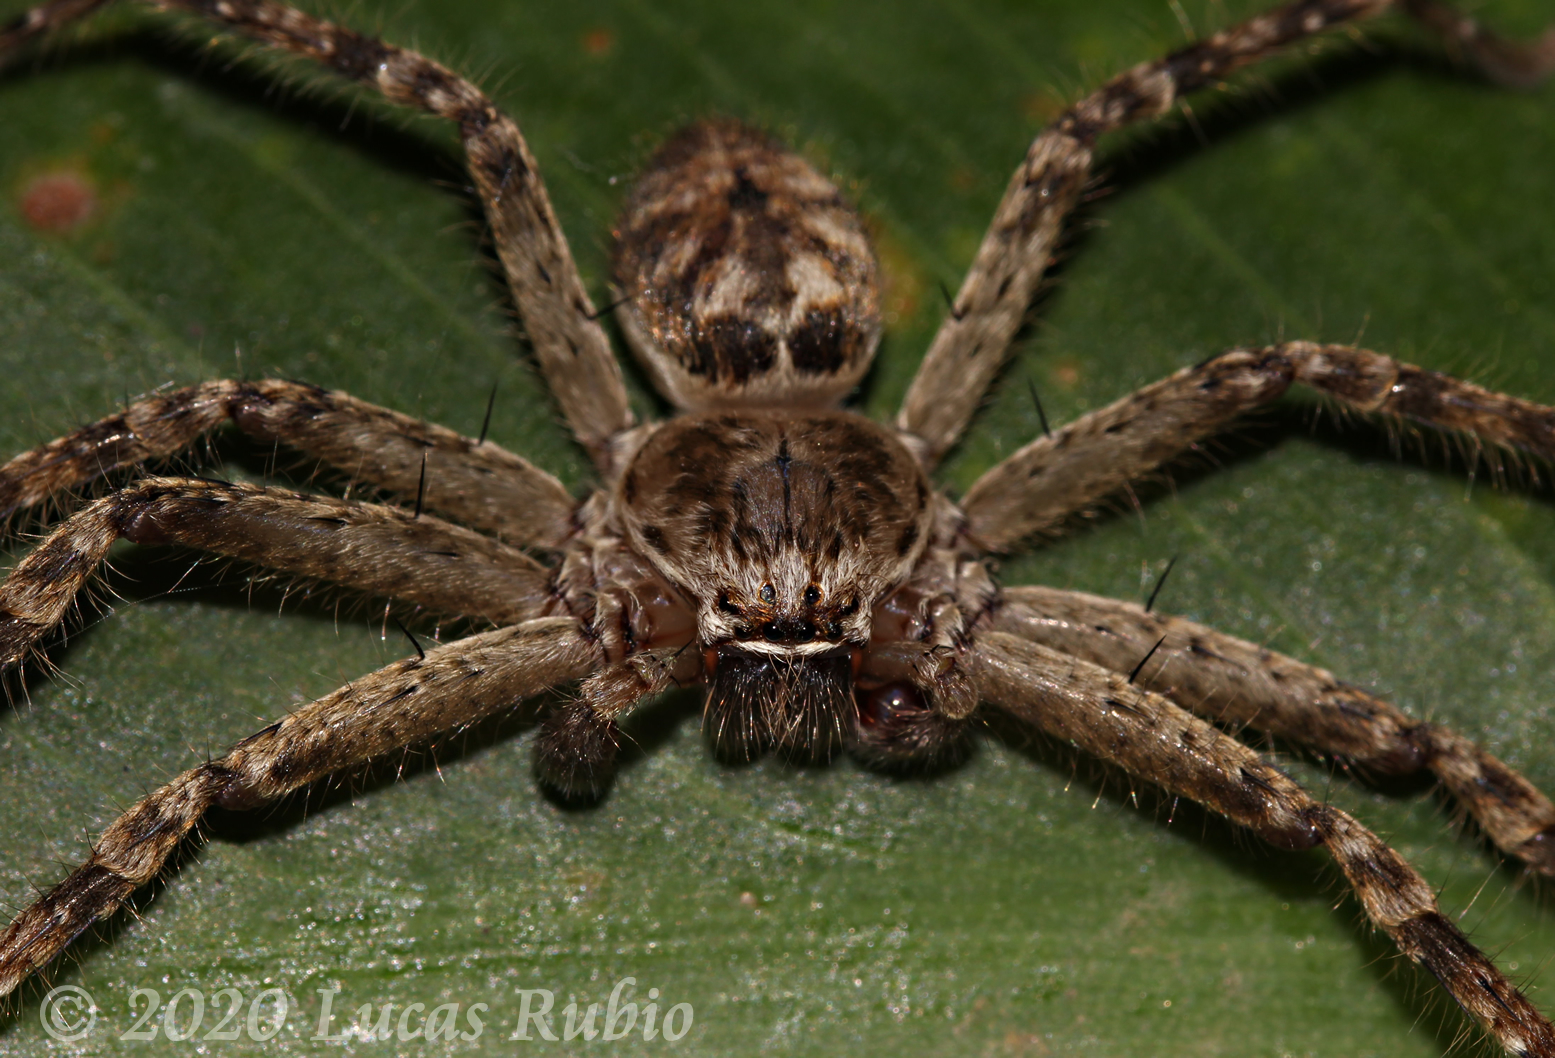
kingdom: Animalia
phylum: Arthropoda
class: Arachnida
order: Araneae
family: Sparassidae
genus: Polybetes
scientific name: Polybetes rapidus
